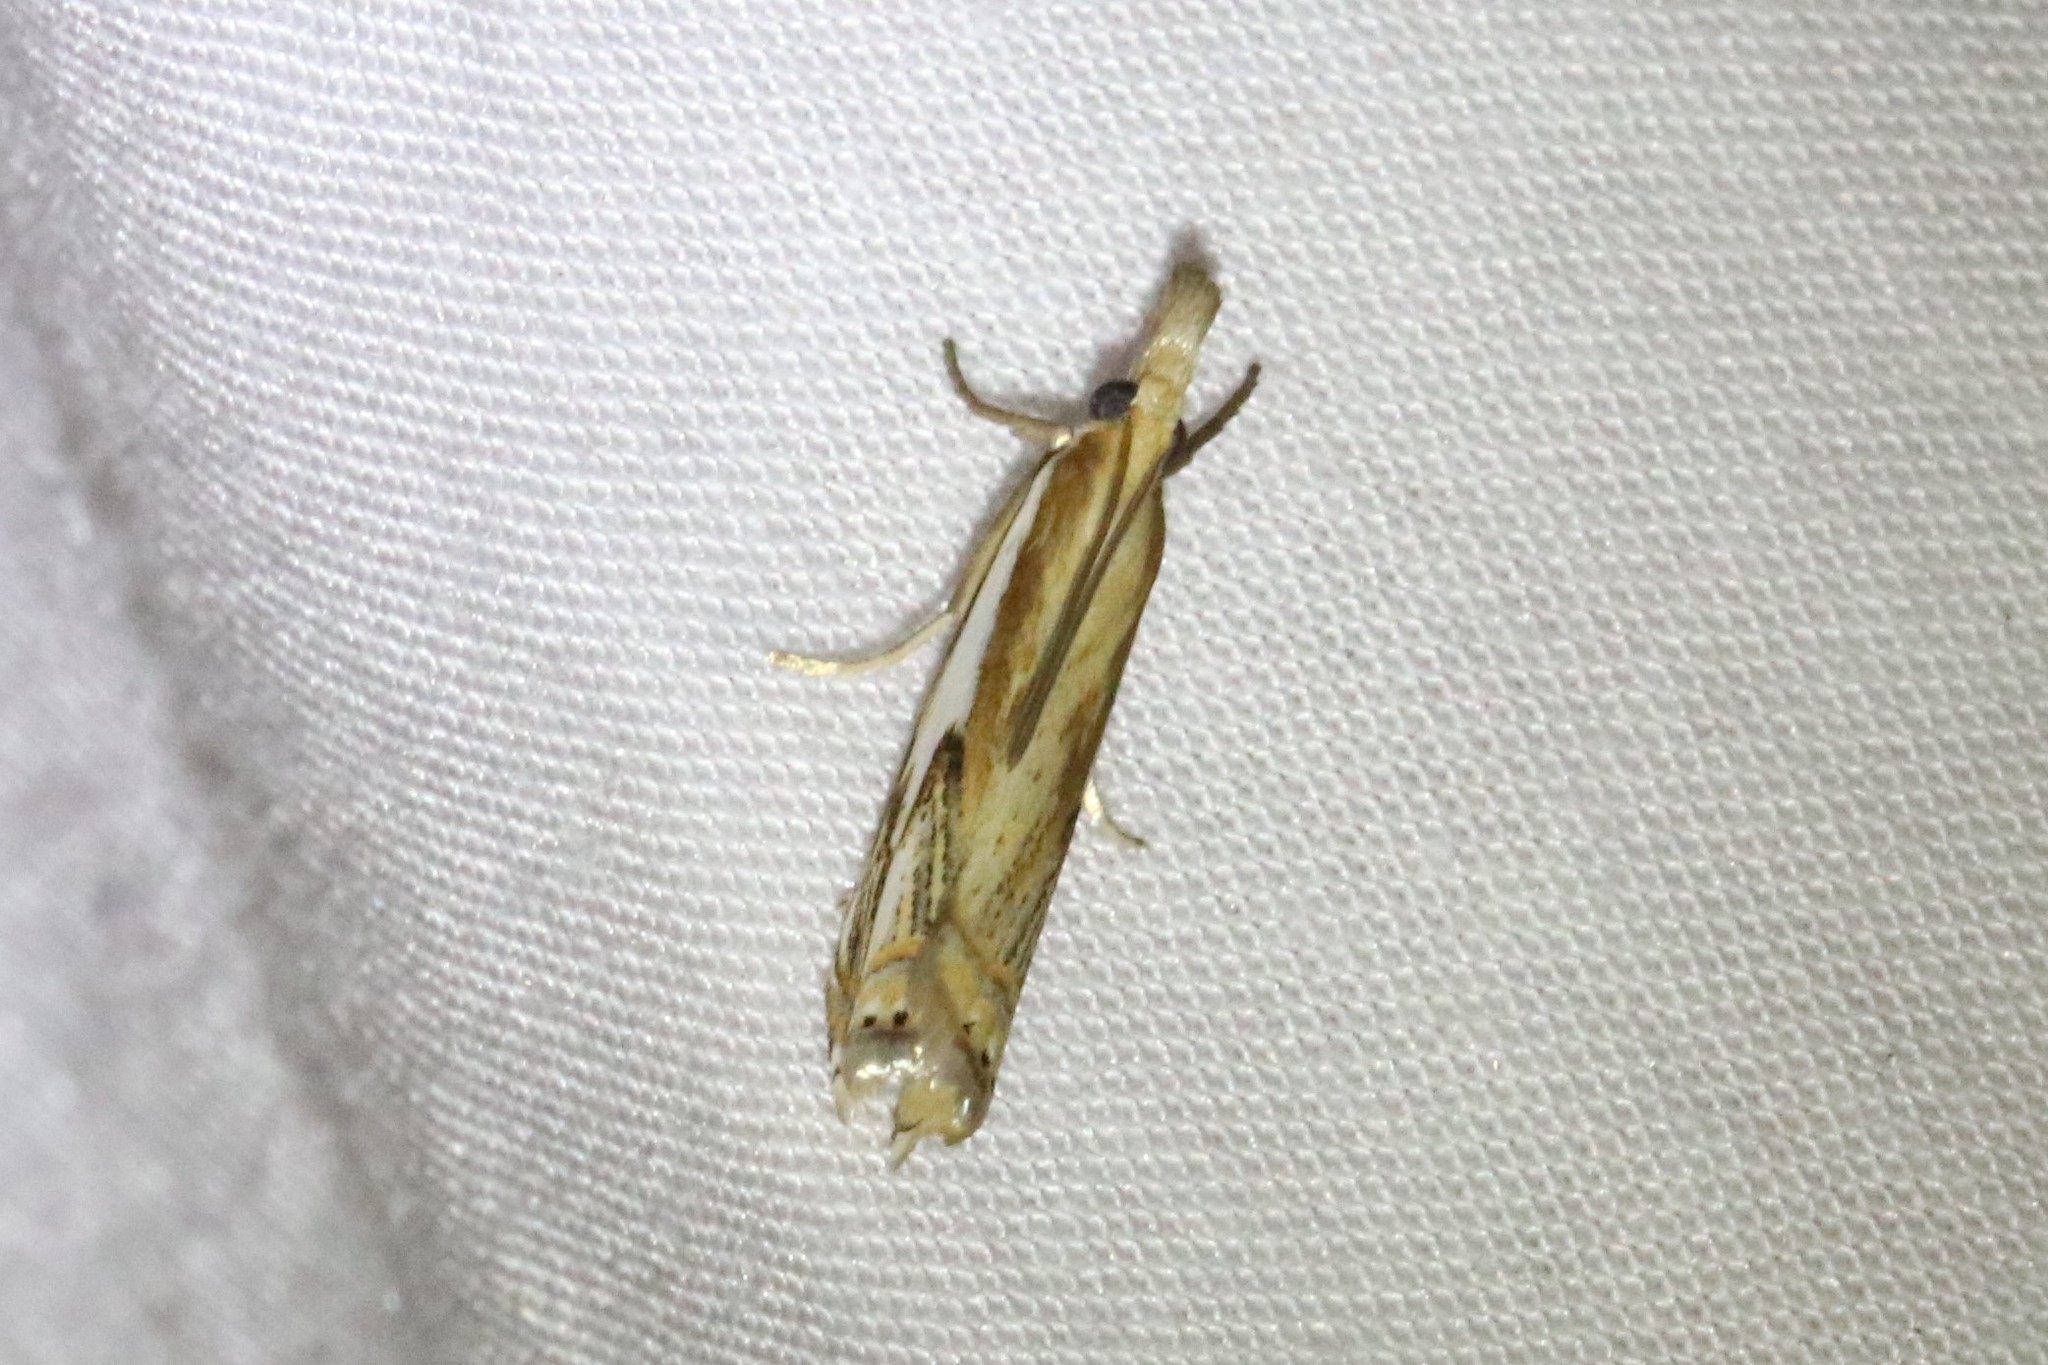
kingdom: Animalia
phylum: Arthropoda
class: Insecta
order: Lepidoptera
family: Crambidae
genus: Crambus
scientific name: Crambus agitatellus
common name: Double-banded grass-veneer
